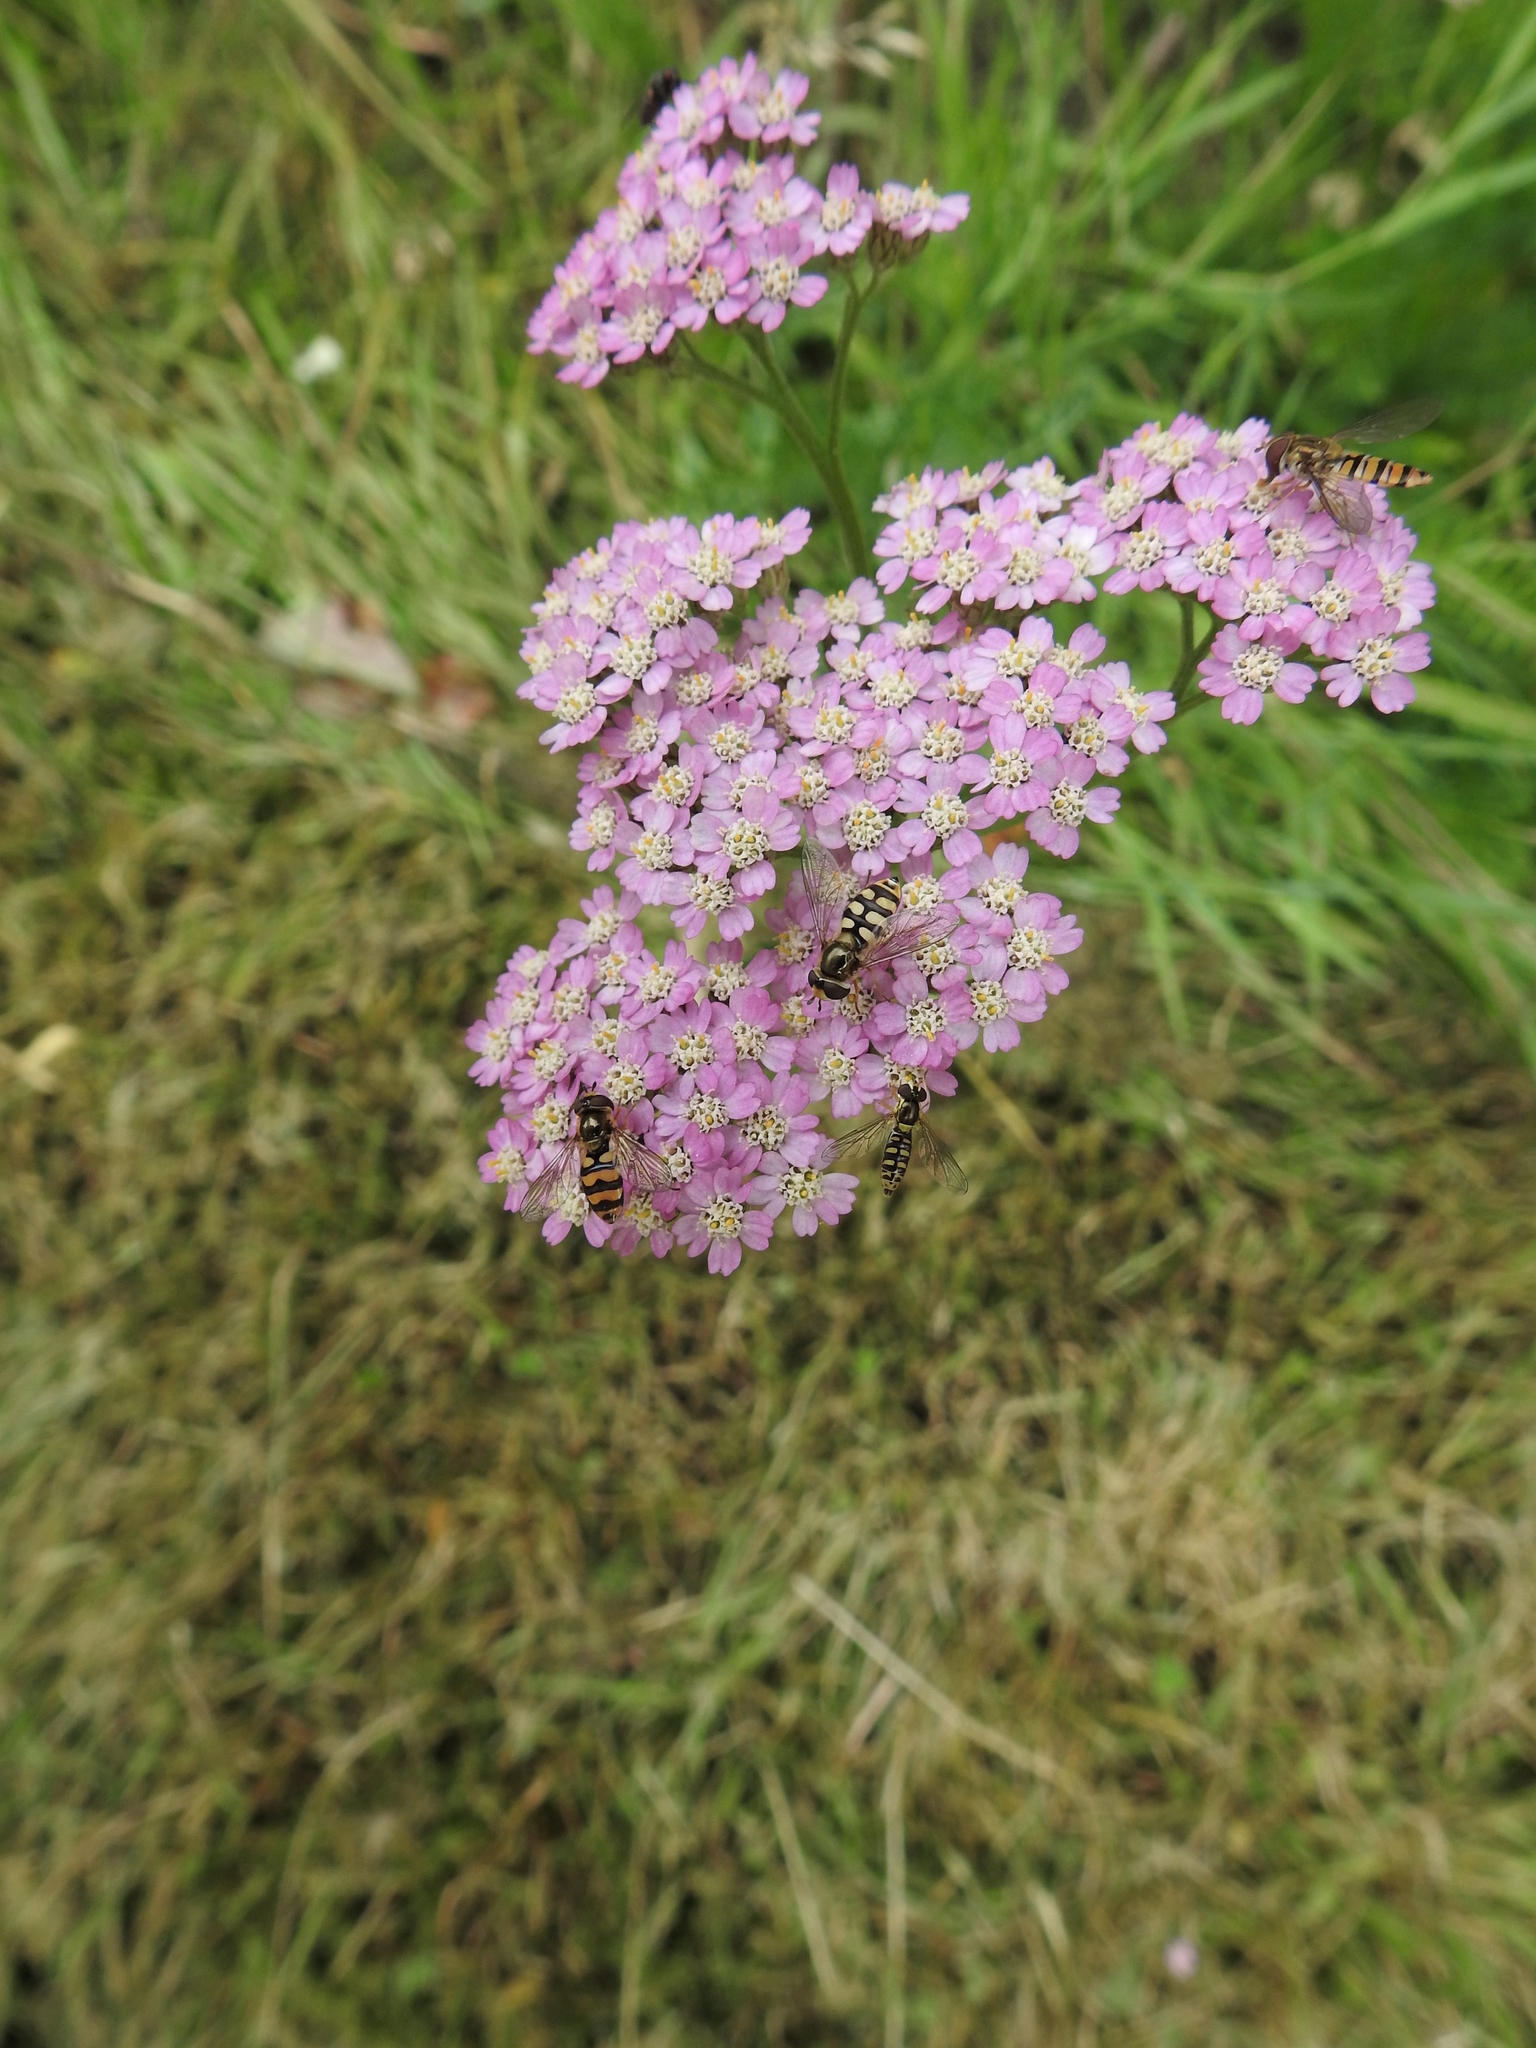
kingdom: Plantae
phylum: Tracheophyta
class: Magnoliopsida
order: Asterales
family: Asteraceae
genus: Achillea
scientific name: Achillea millefolium
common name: Yarrow
